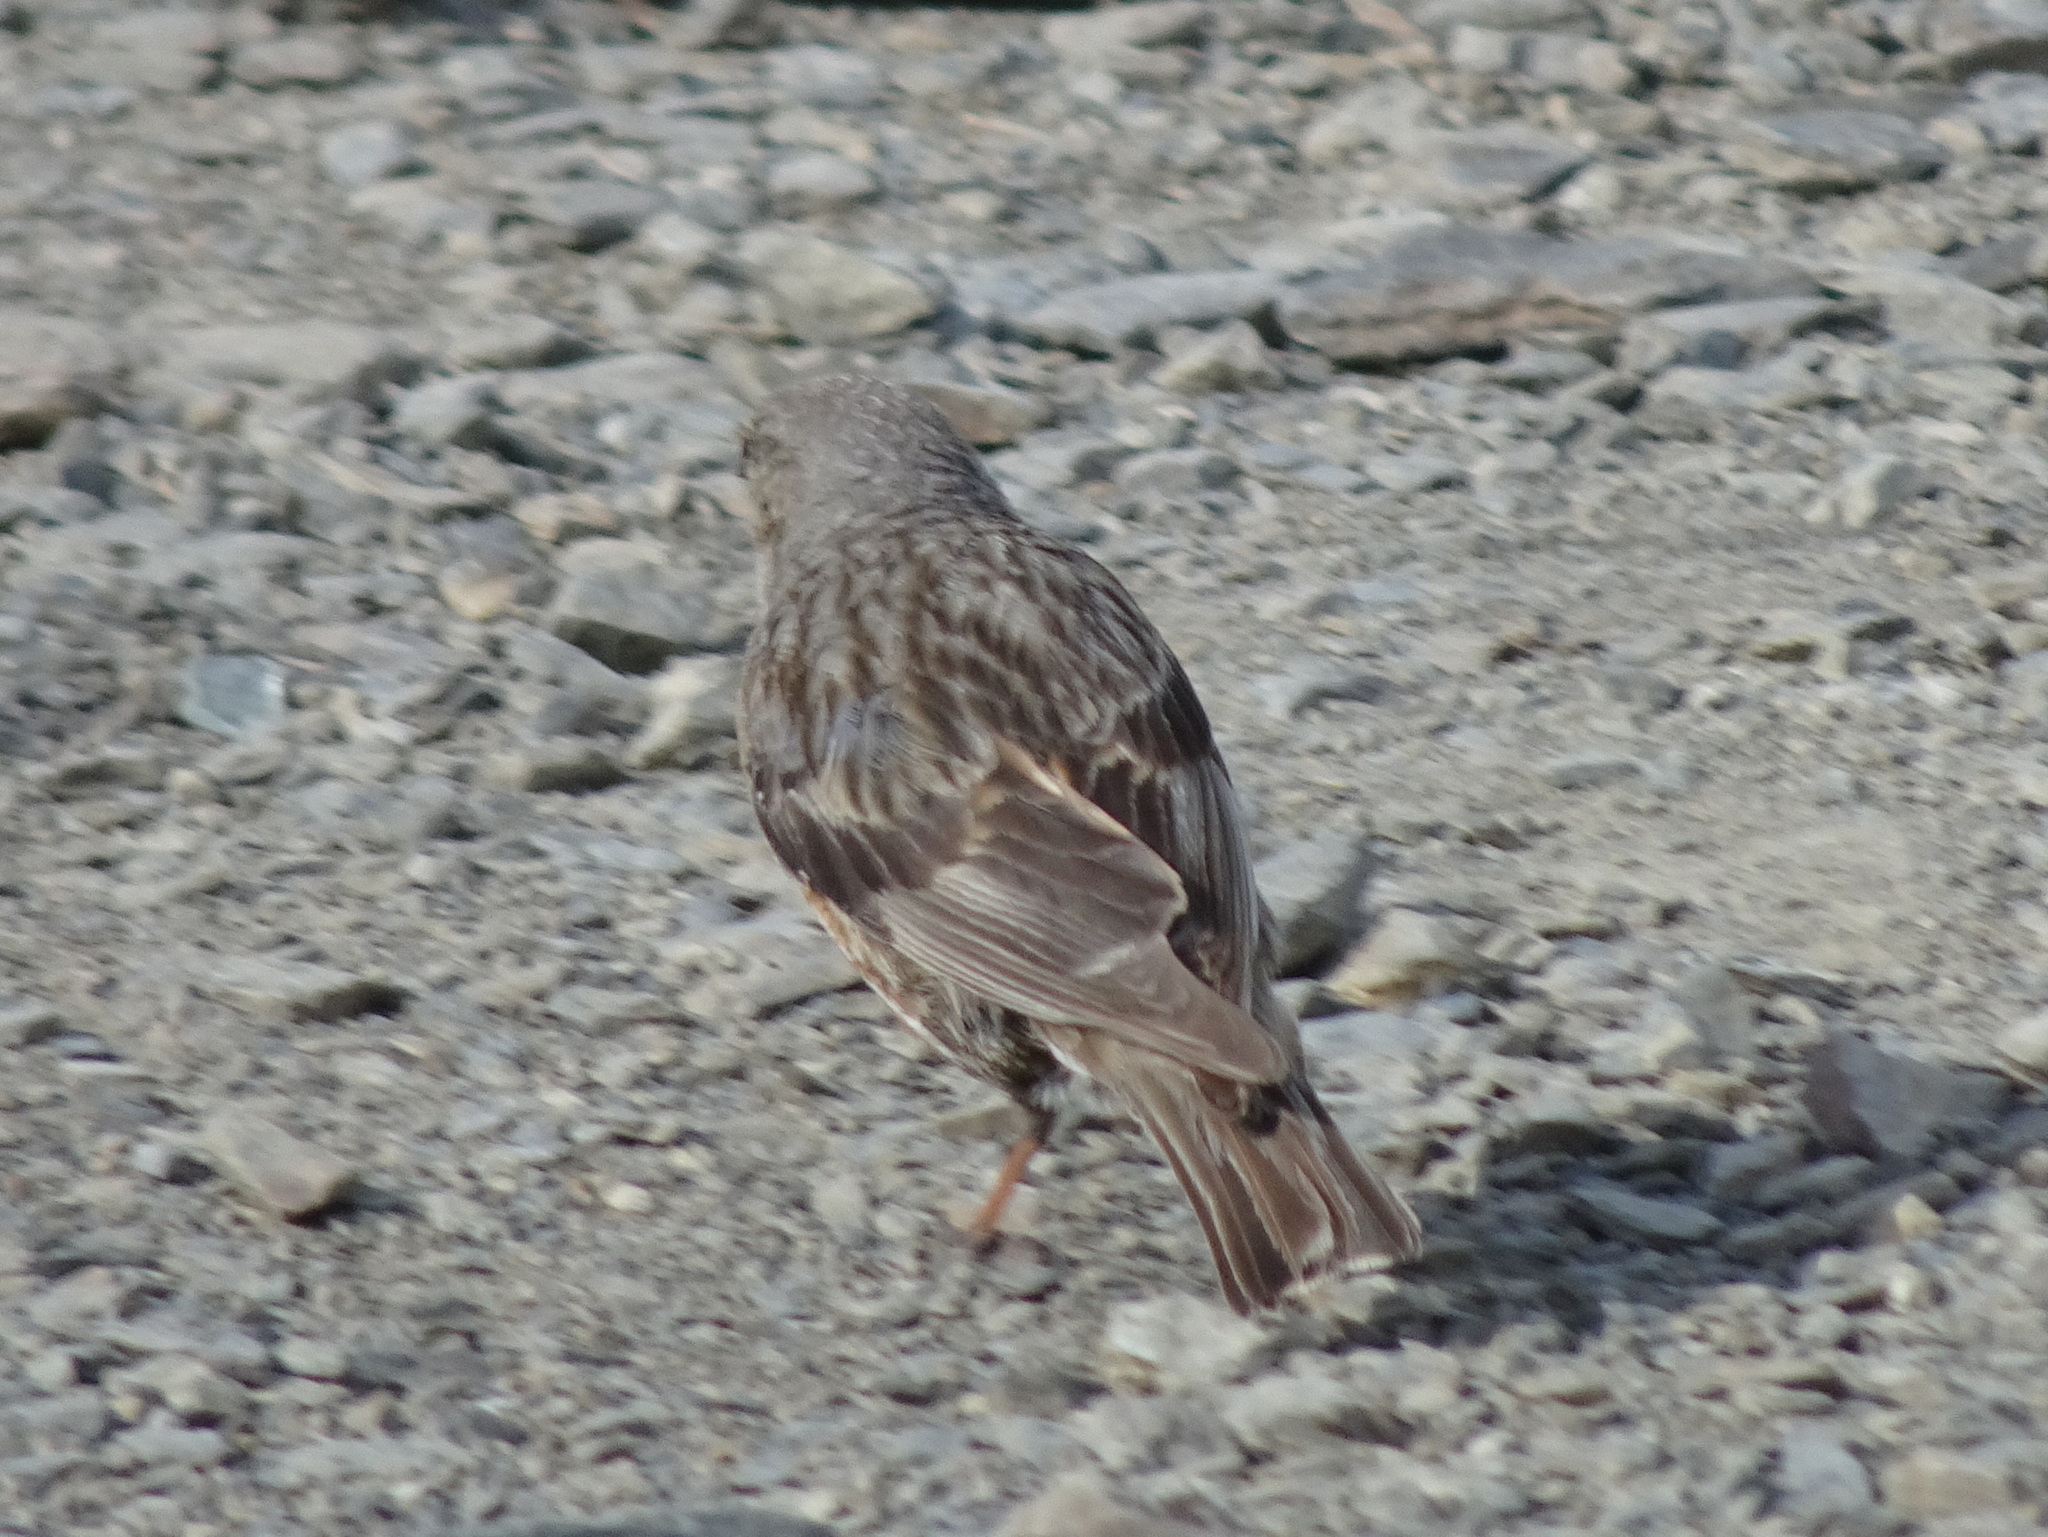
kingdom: Animalia
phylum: Chordata
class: Aves
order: Passeriformes
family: Prunellidae
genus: Prunella
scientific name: Prunella collaris
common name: Alpine accentor
